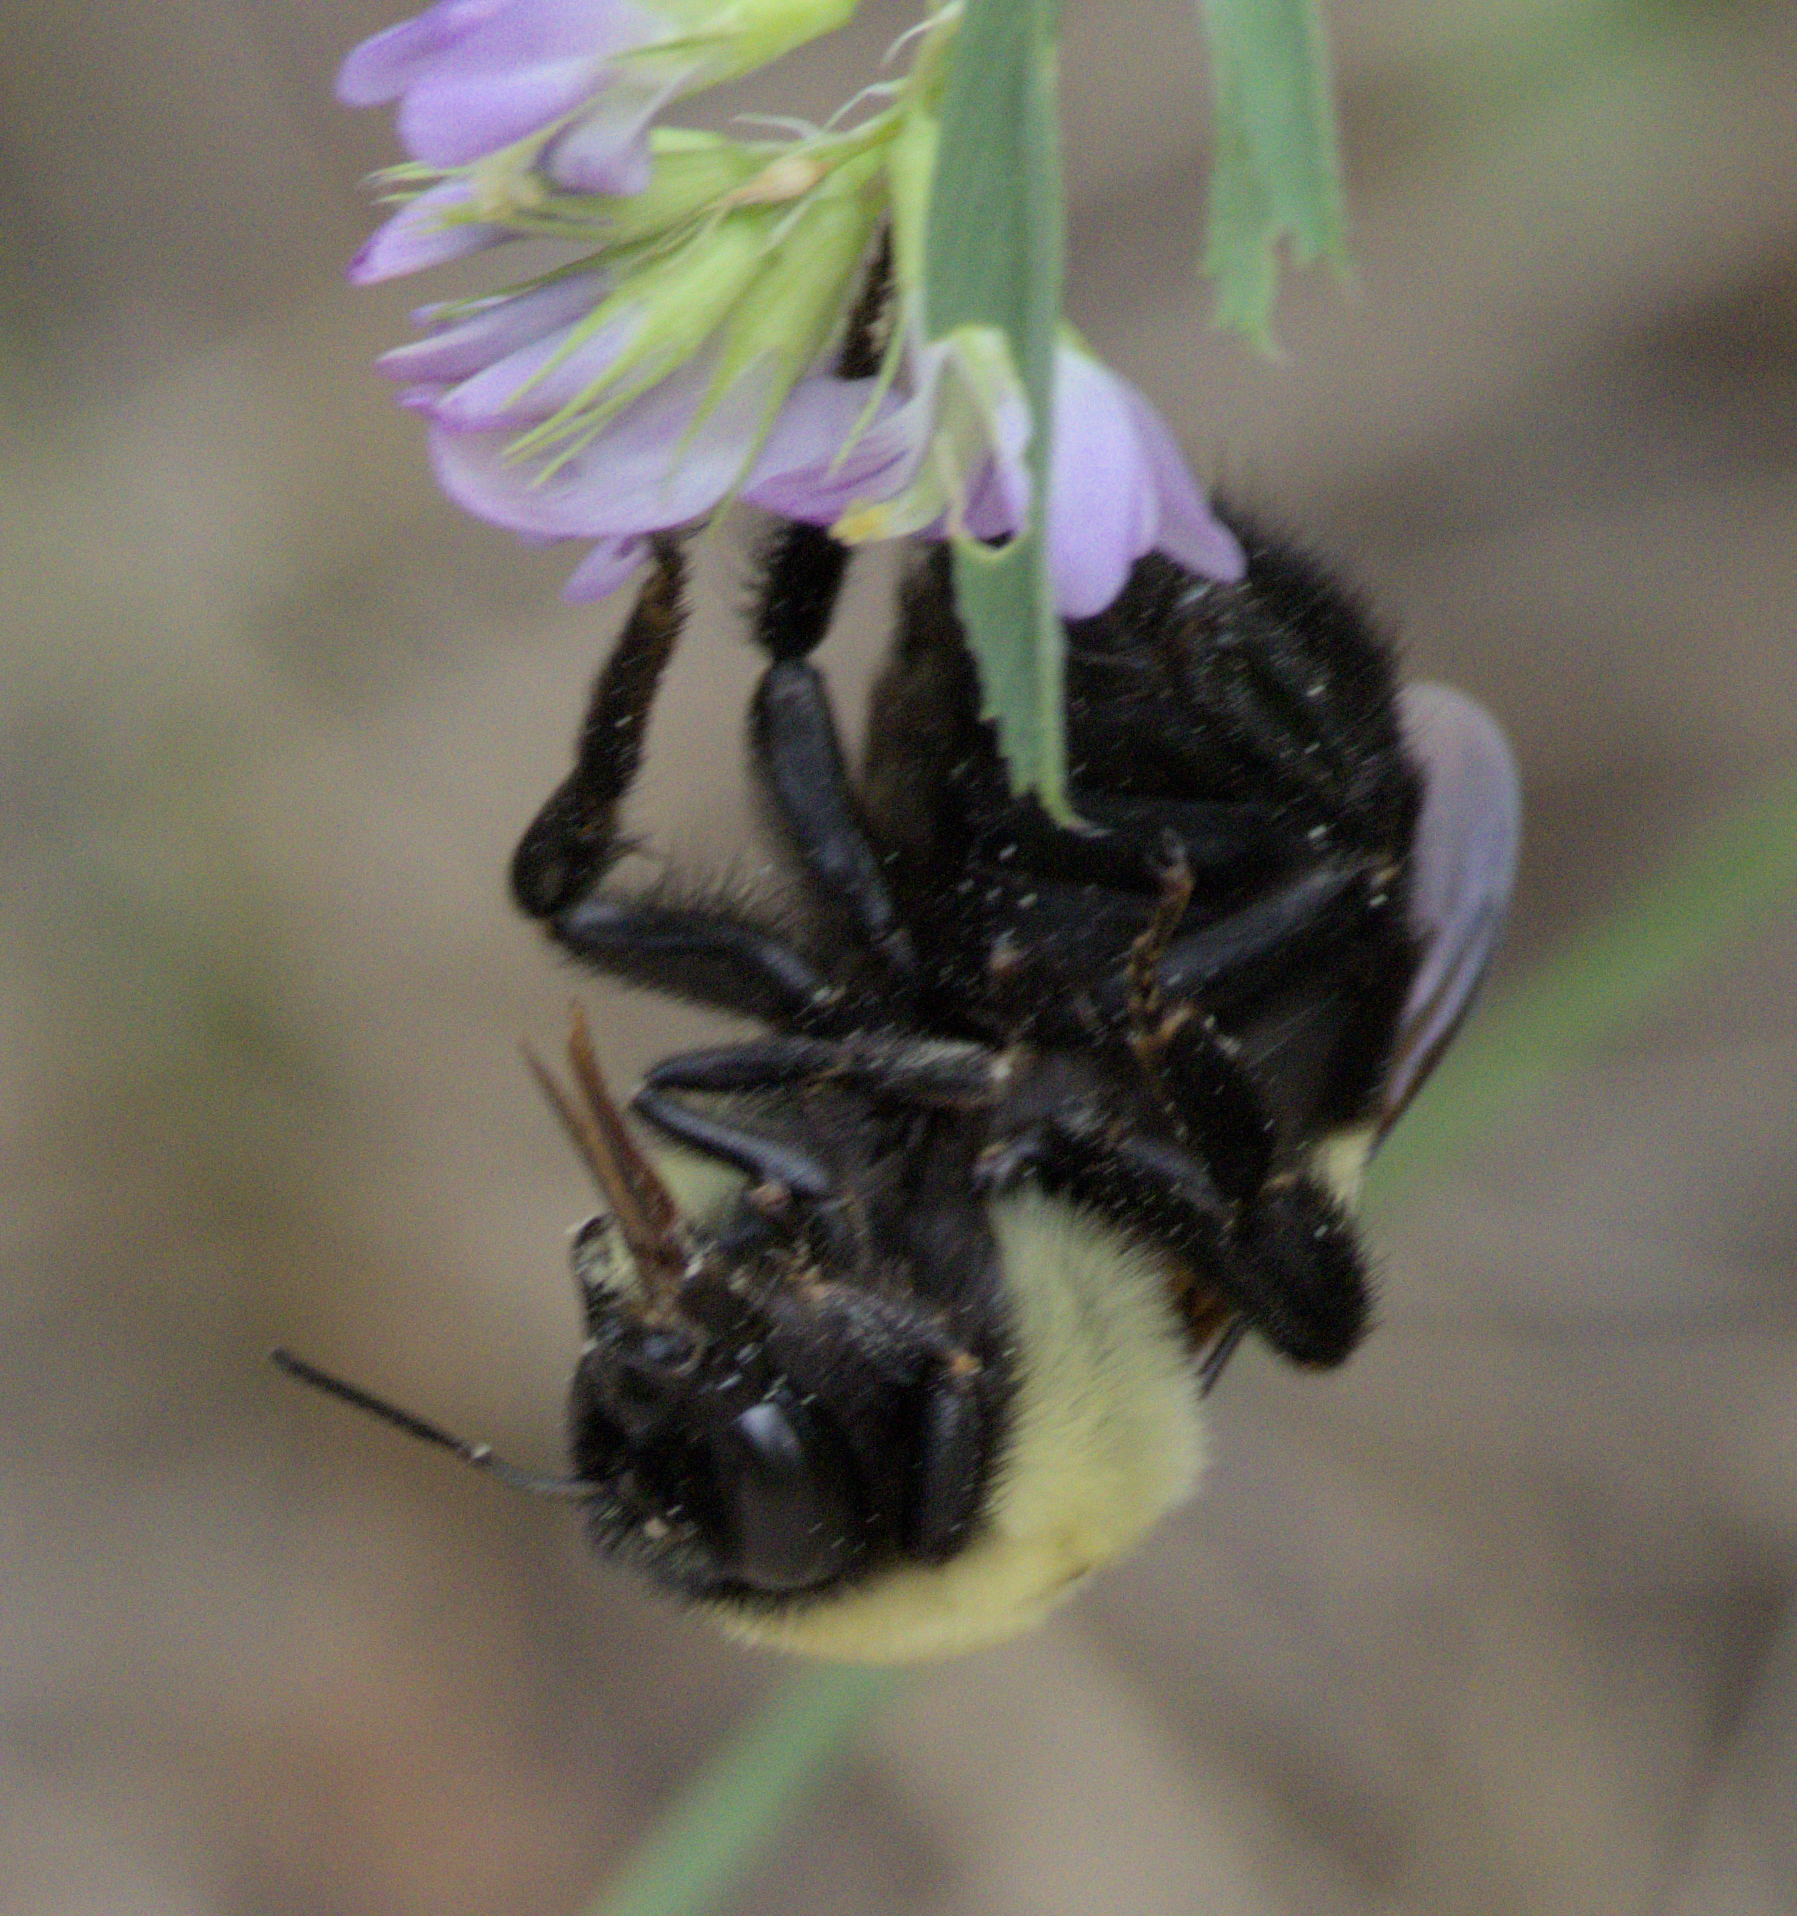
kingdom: Animalia
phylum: Arthropoda
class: Insecta
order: Hymenoptera
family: Apidae
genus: Bombus
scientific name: Bombus griseocollis
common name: Brown-belted bumble bee
